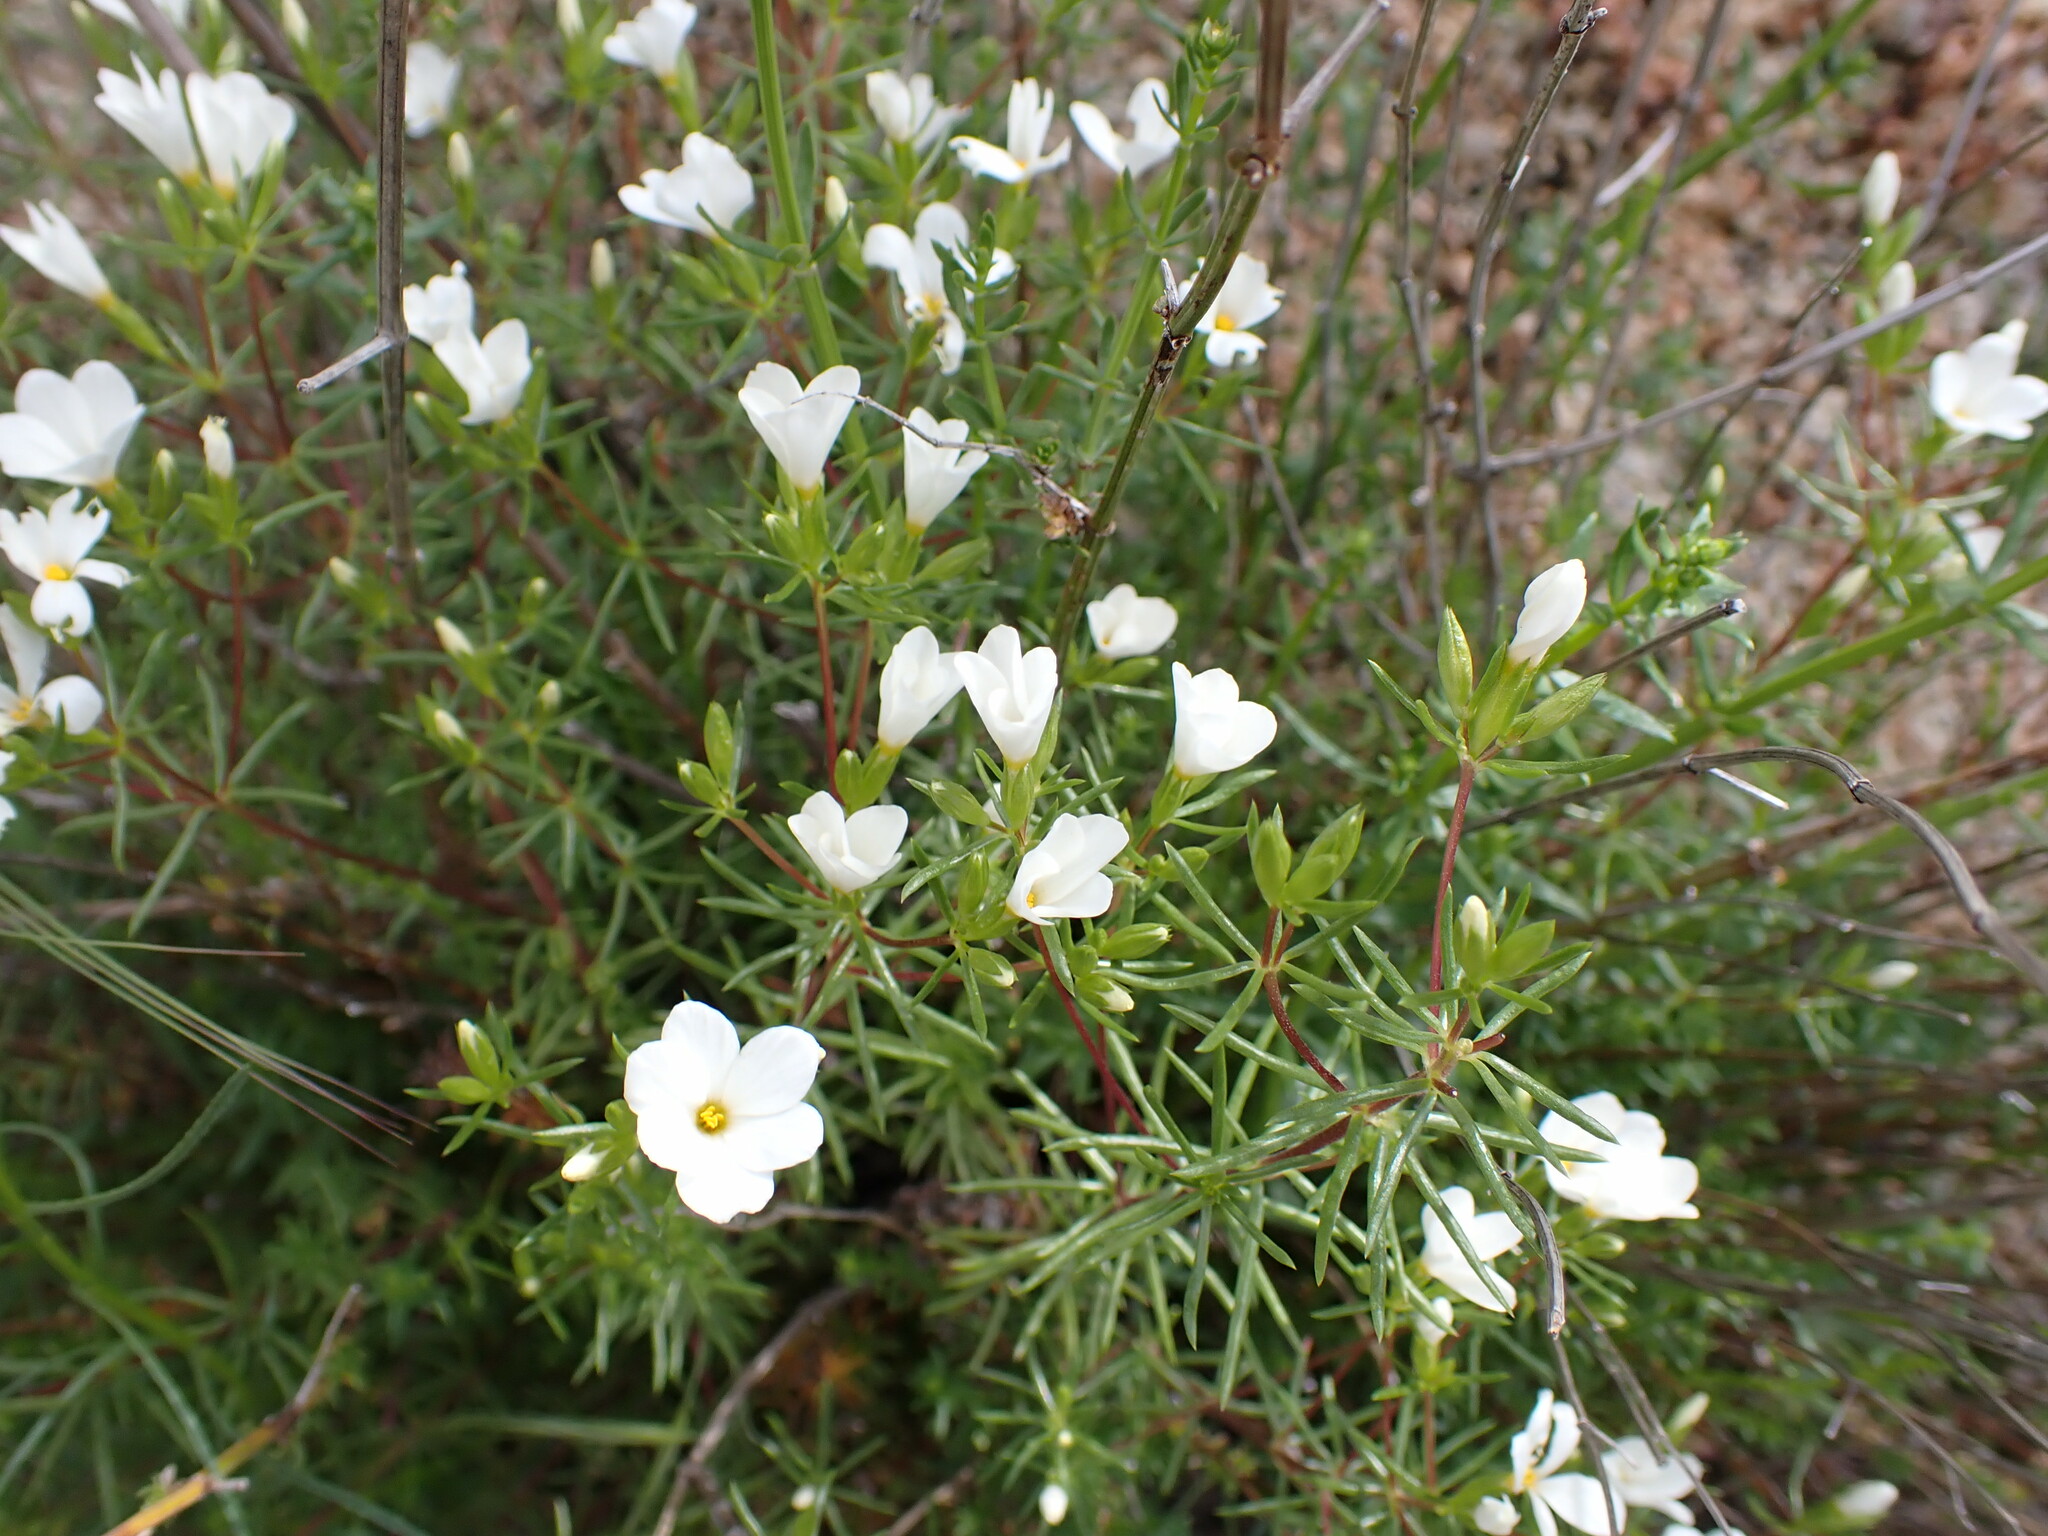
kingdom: Plantae
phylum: Tracheophyta
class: Magnoliopsida
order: Ericales
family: Polemoniaceae
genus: Leptosiphon
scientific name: Leptosiphon floribundum
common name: Many-flower linanthus
